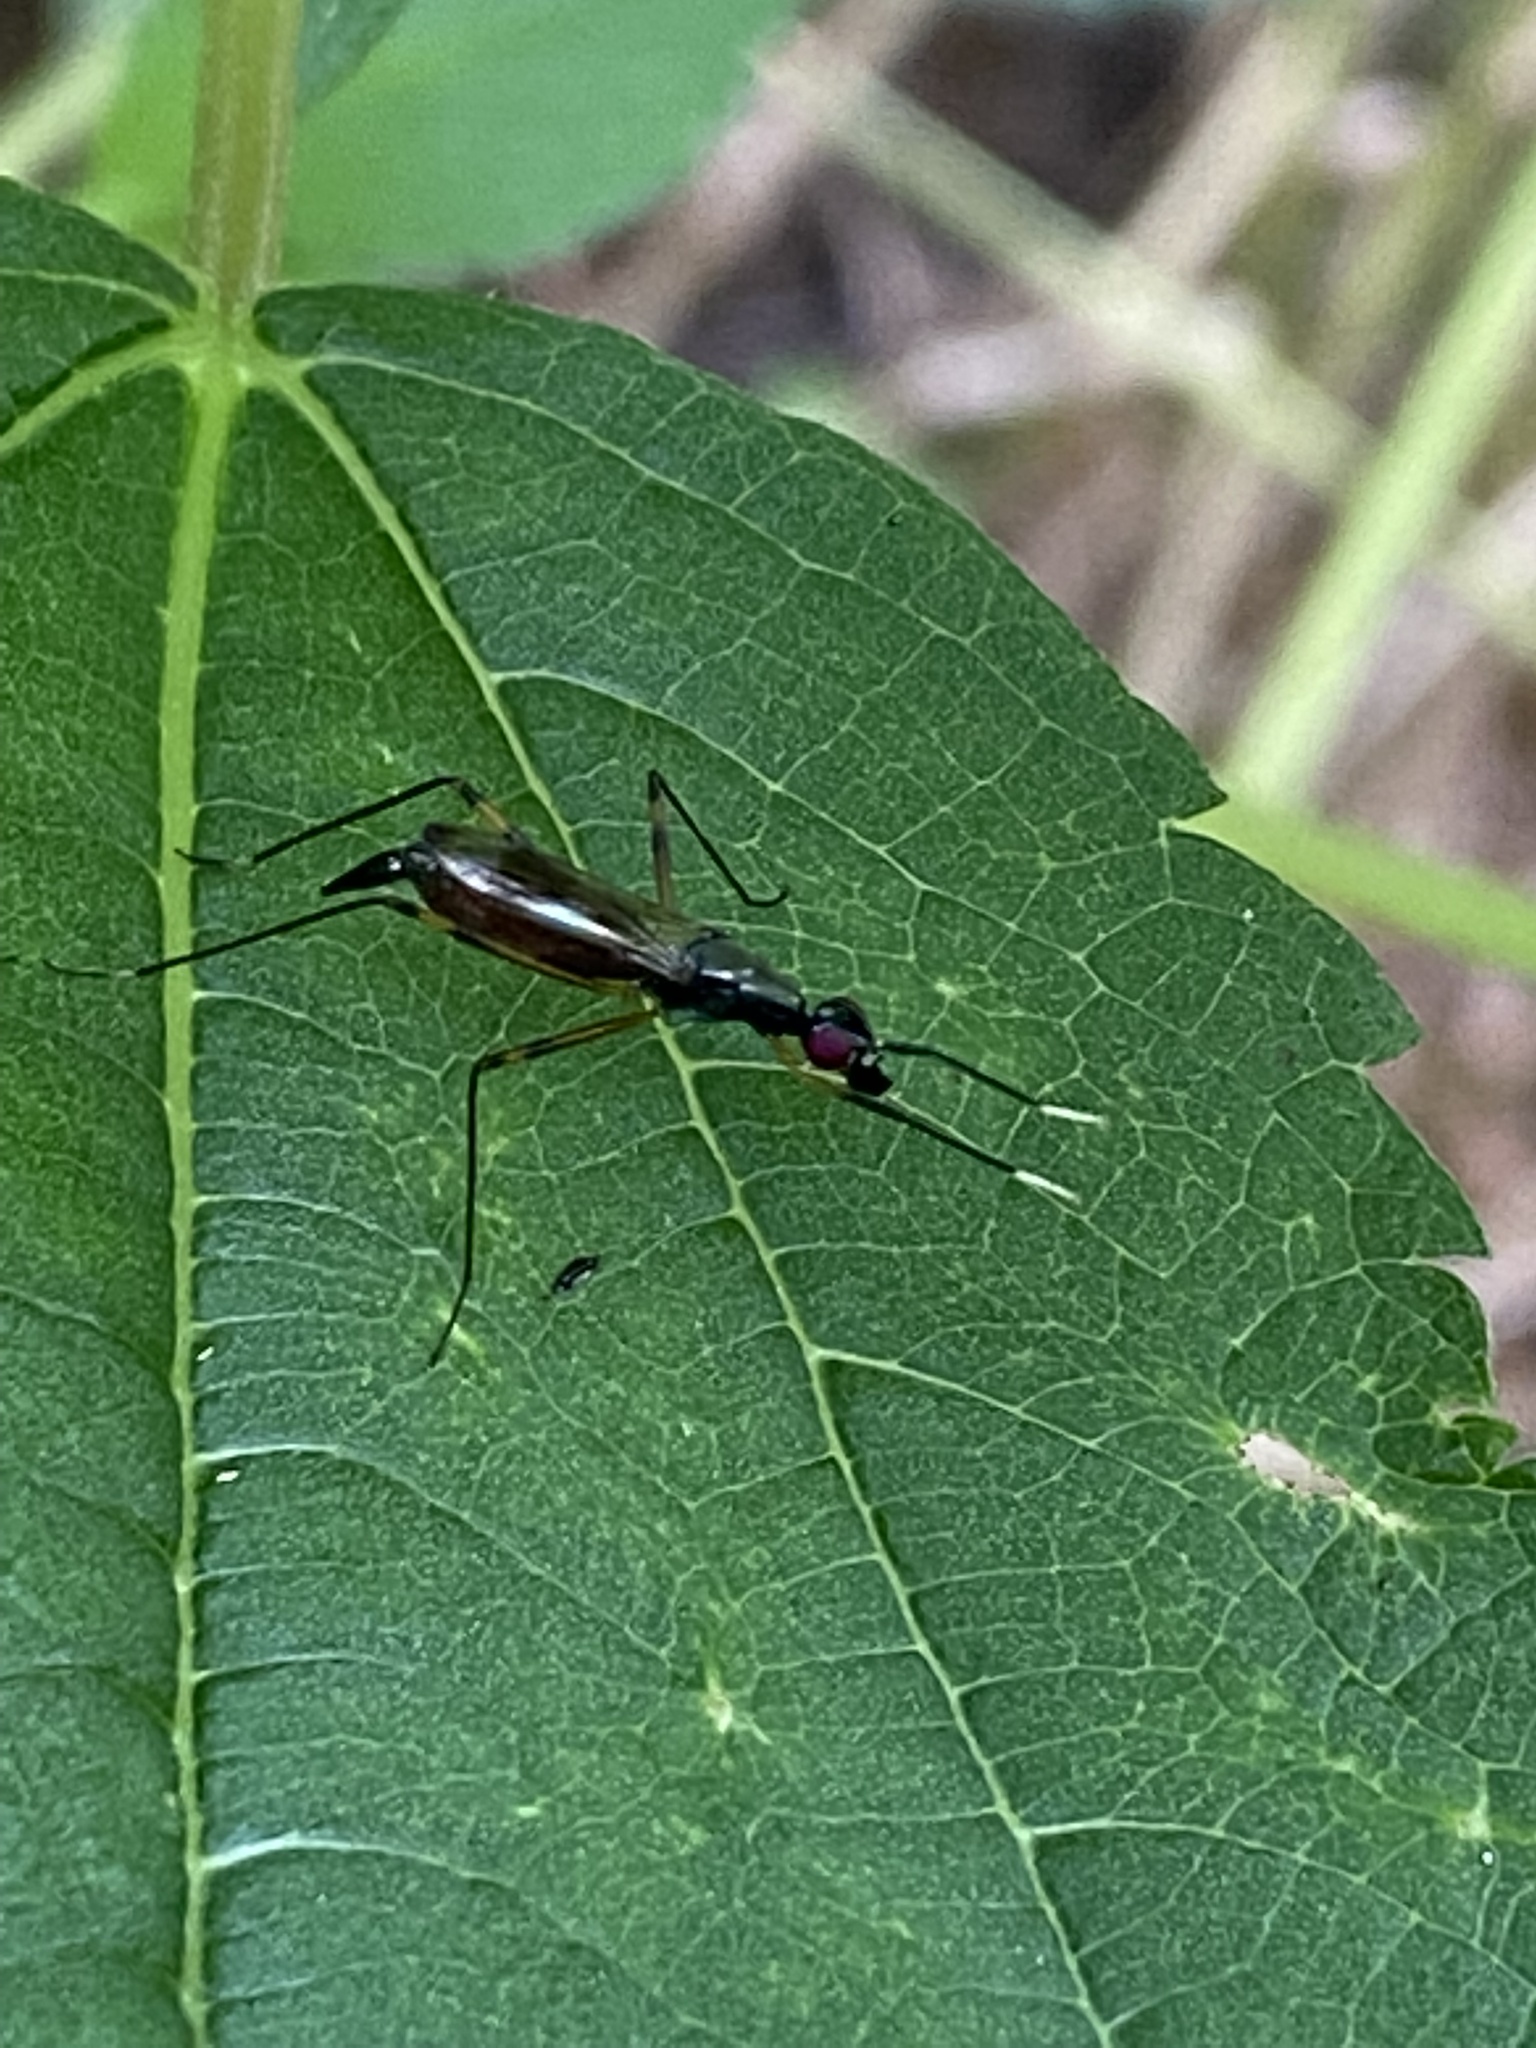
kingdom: Animalia
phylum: Arthropoda
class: Insecta
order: Diptera
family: Micropezidae
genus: Rainieria
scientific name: Rainieria antennaepes
